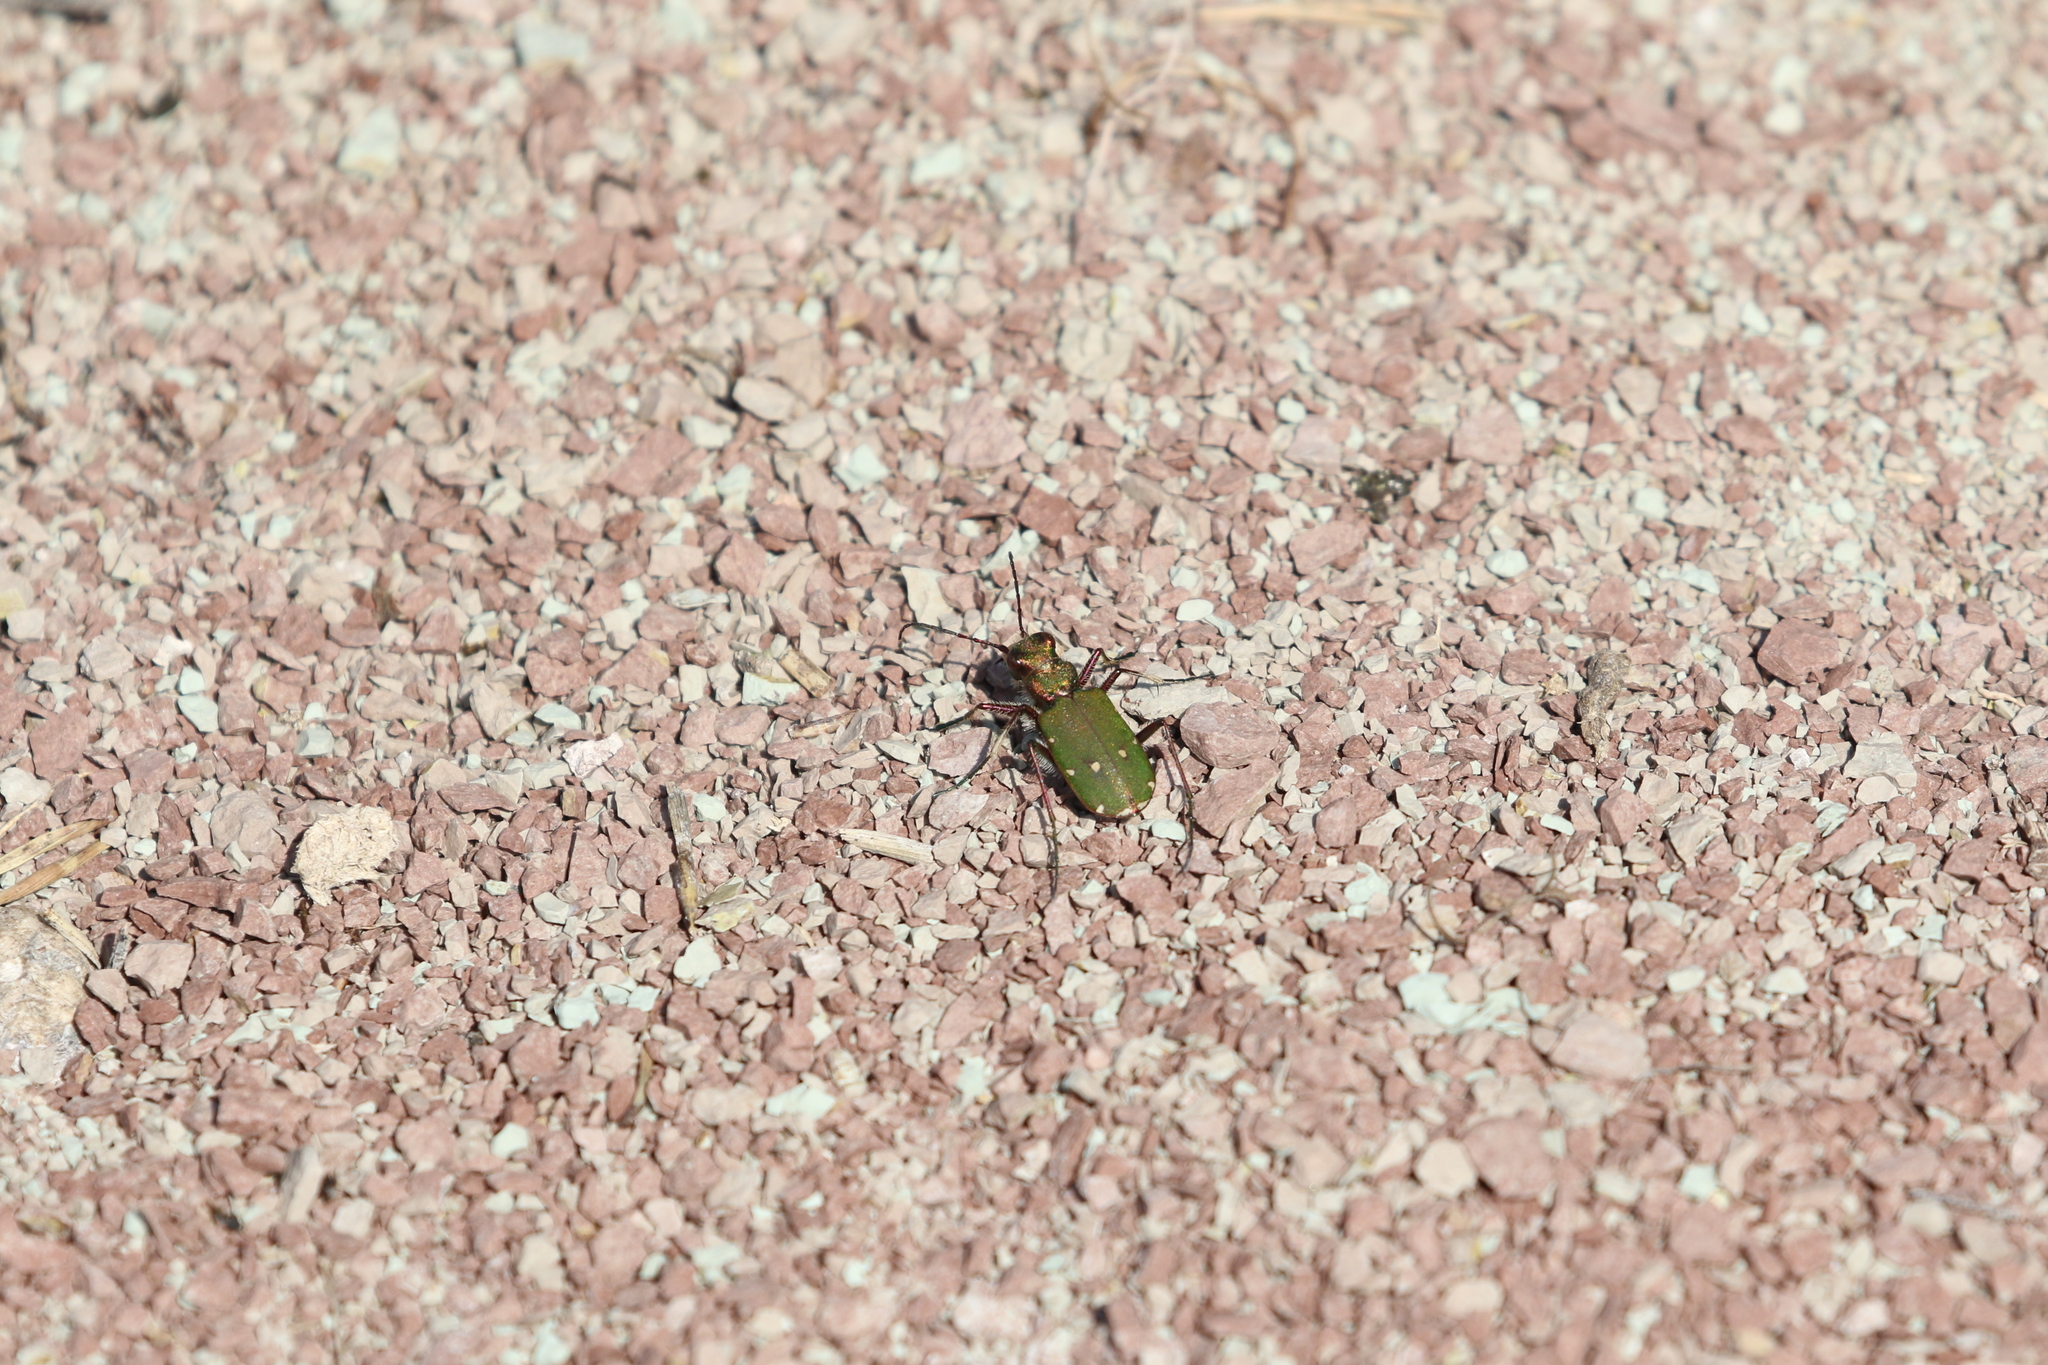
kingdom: Animalia
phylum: Arthropoda
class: Insecta
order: Coleoptera
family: Carabidae
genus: Cicindela
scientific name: Cicindela campestris
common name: Common tiger beetle
